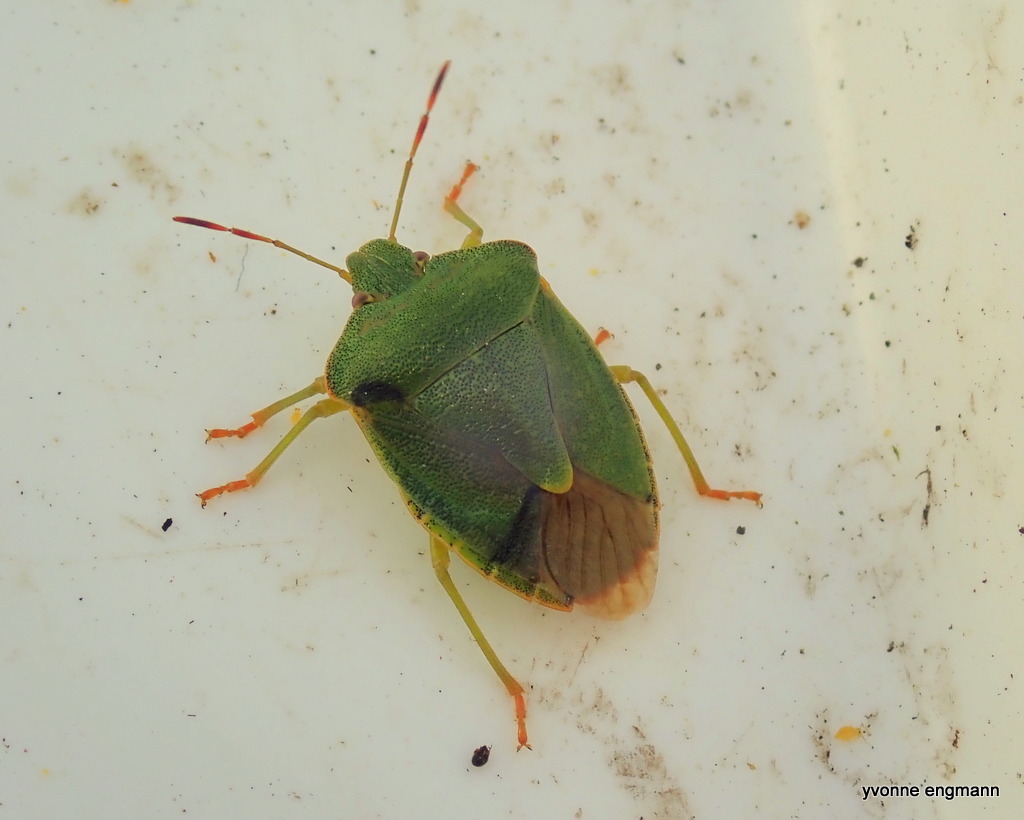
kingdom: Animalia
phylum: Arthropoda
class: Insecta
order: Hemiptera
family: Pentatomidae
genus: Palomena
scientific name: Palomena prasina
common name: Green shieldbug
